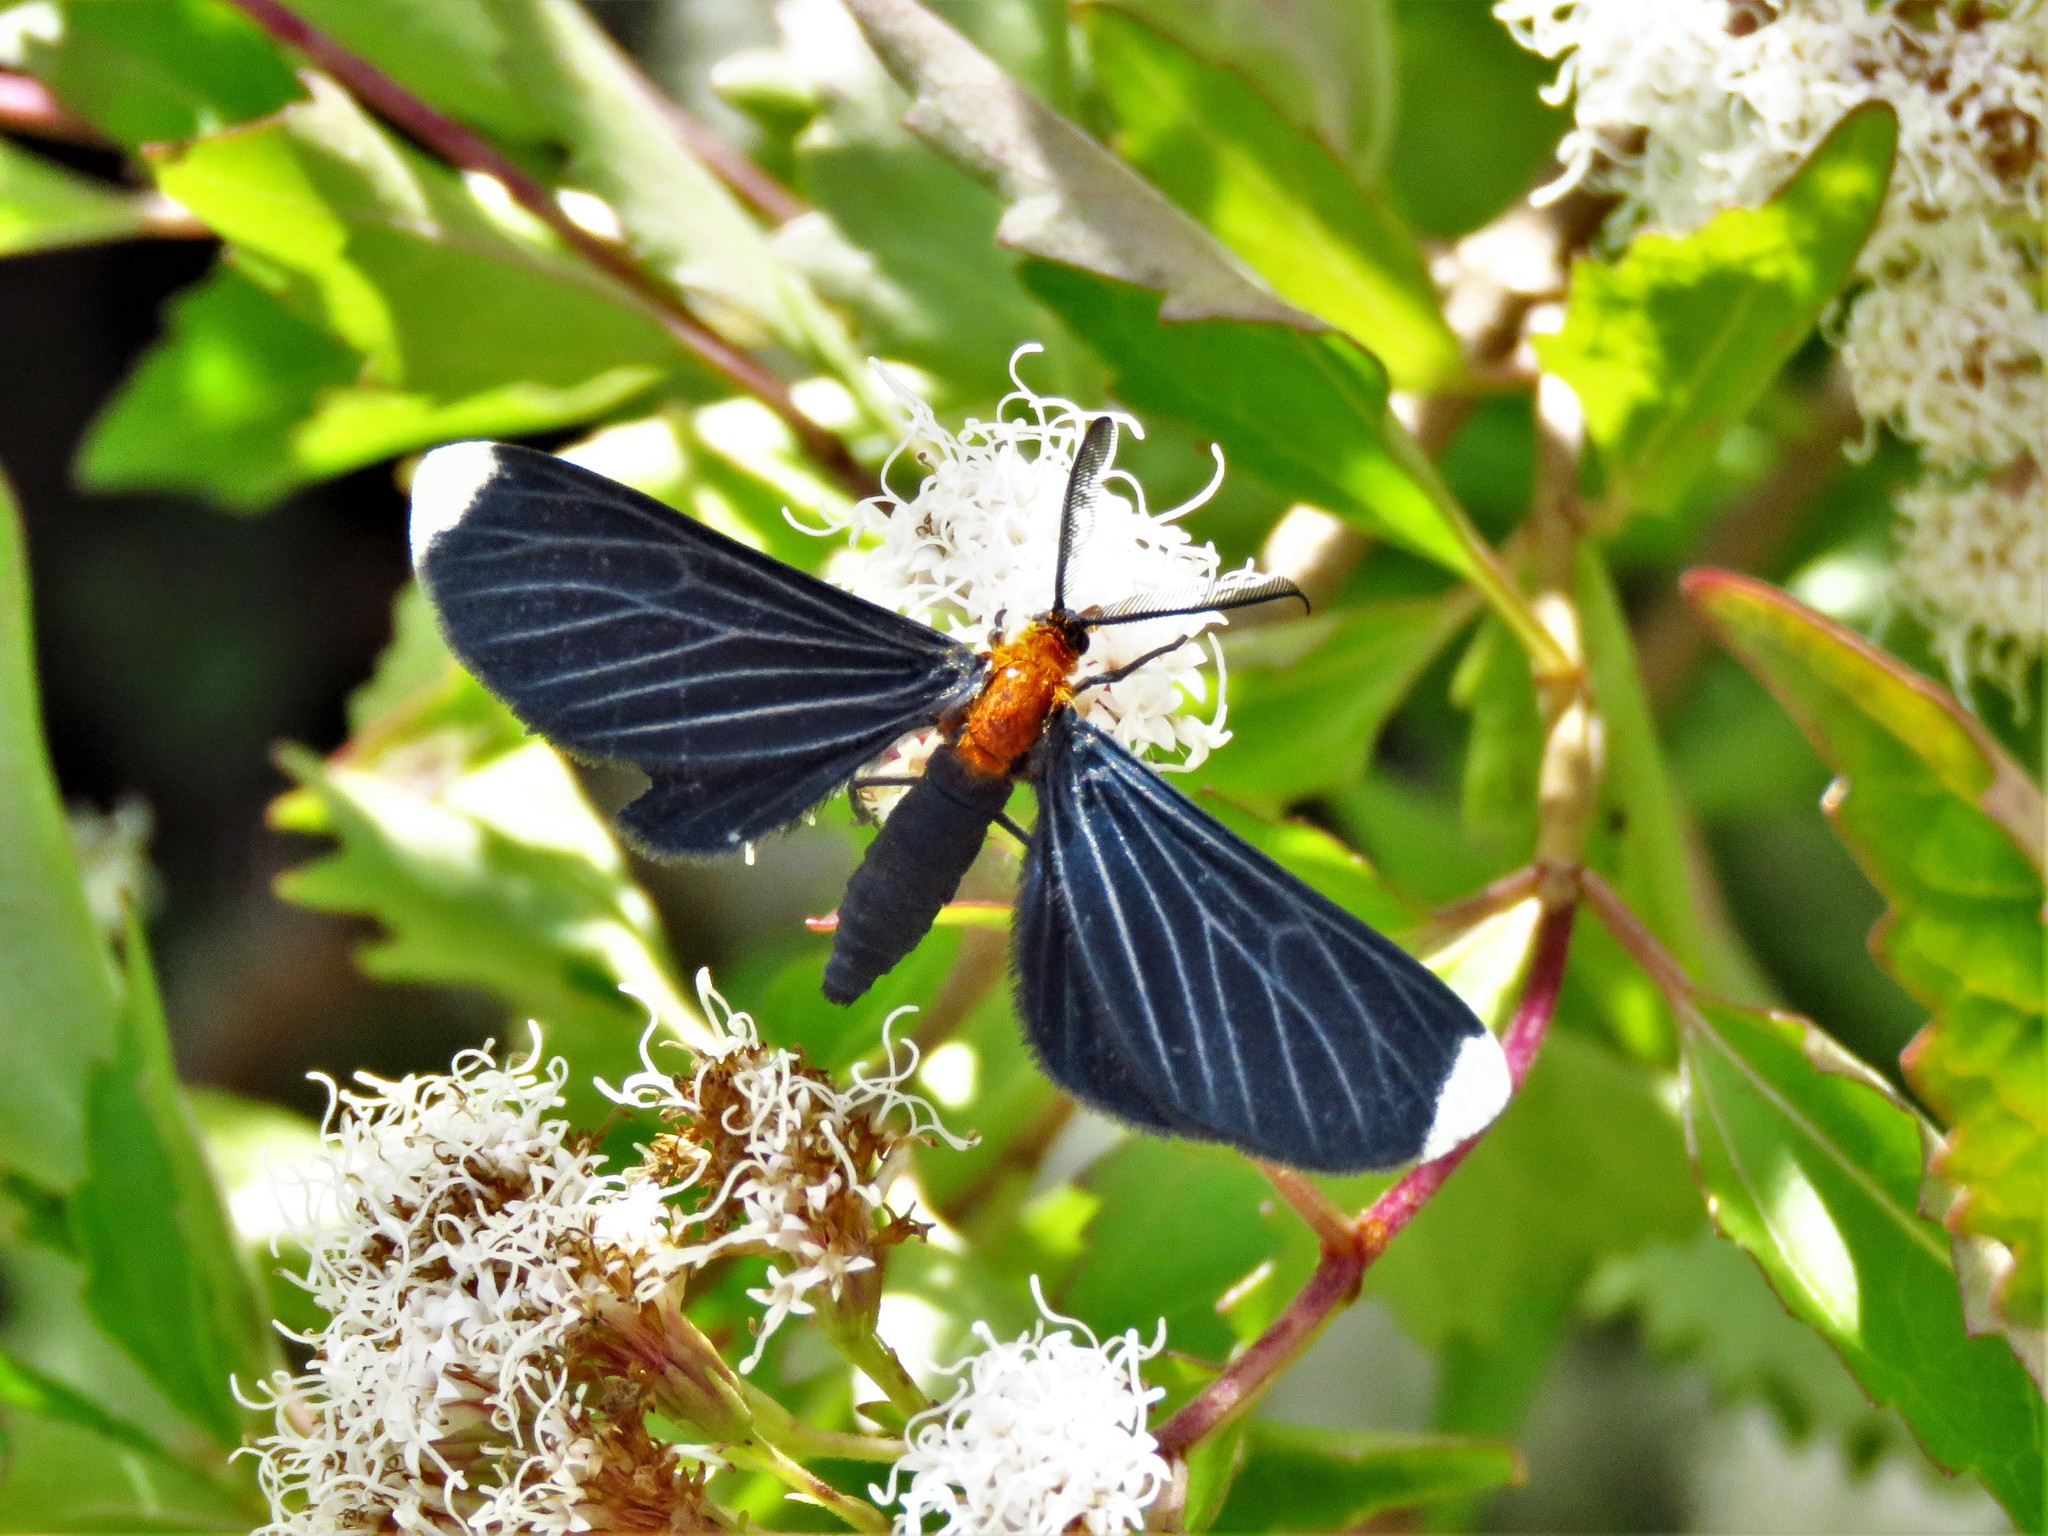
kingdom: Animalia
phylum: Arthropoda
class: Insecta
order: Lepidoptera
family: Geometridae
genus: Melanchroia
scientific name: Melanchroia chephise
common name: White-tipped black
